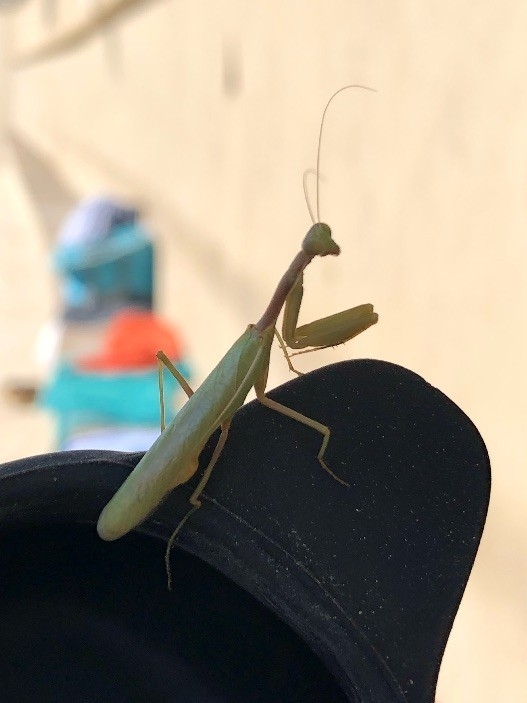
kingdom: Animalia
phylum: Arthropoda
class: Insecta
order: Mantodea
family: Eremiaphilidae
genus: Iris
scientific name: Iris oratoria
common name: Mediterranean mantis
